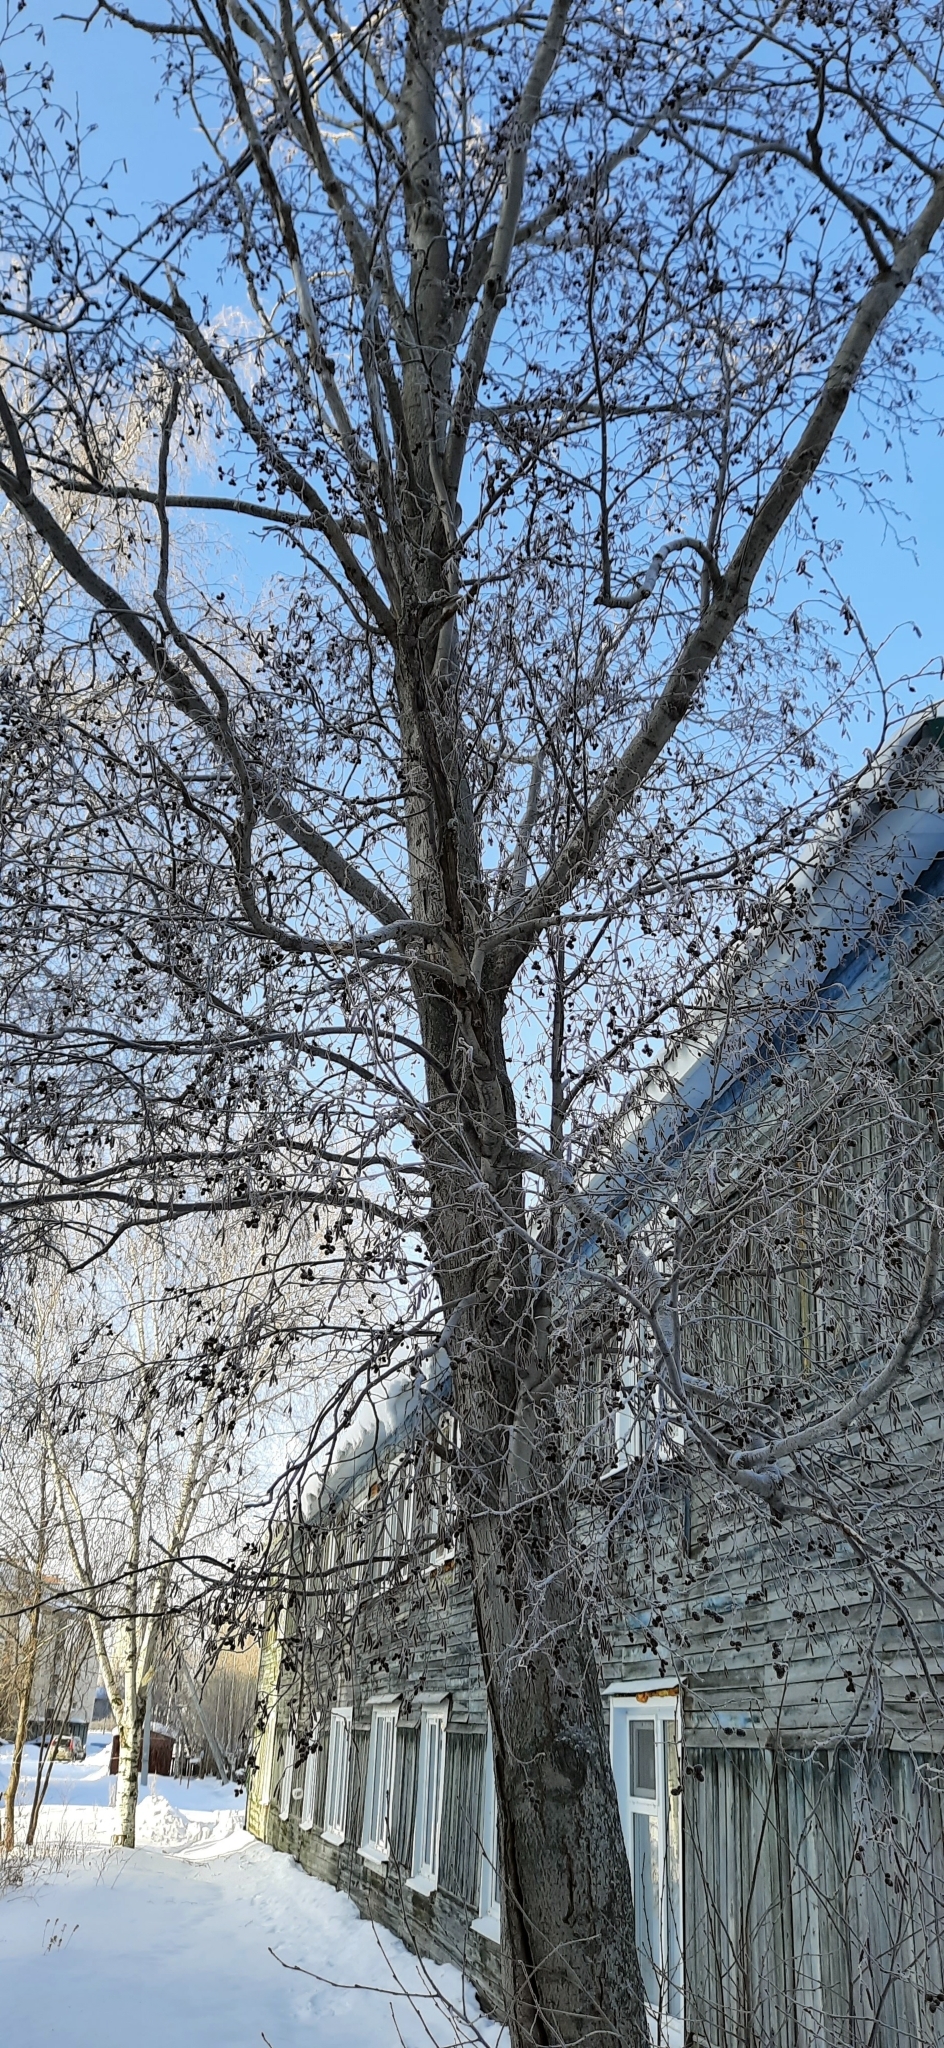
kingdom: Plantae
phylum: Tracheophyta
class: Magnoliopsida
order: Fagales
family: Betulaceae
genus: Alnus
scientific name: Alnus incana
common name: Grey alder
